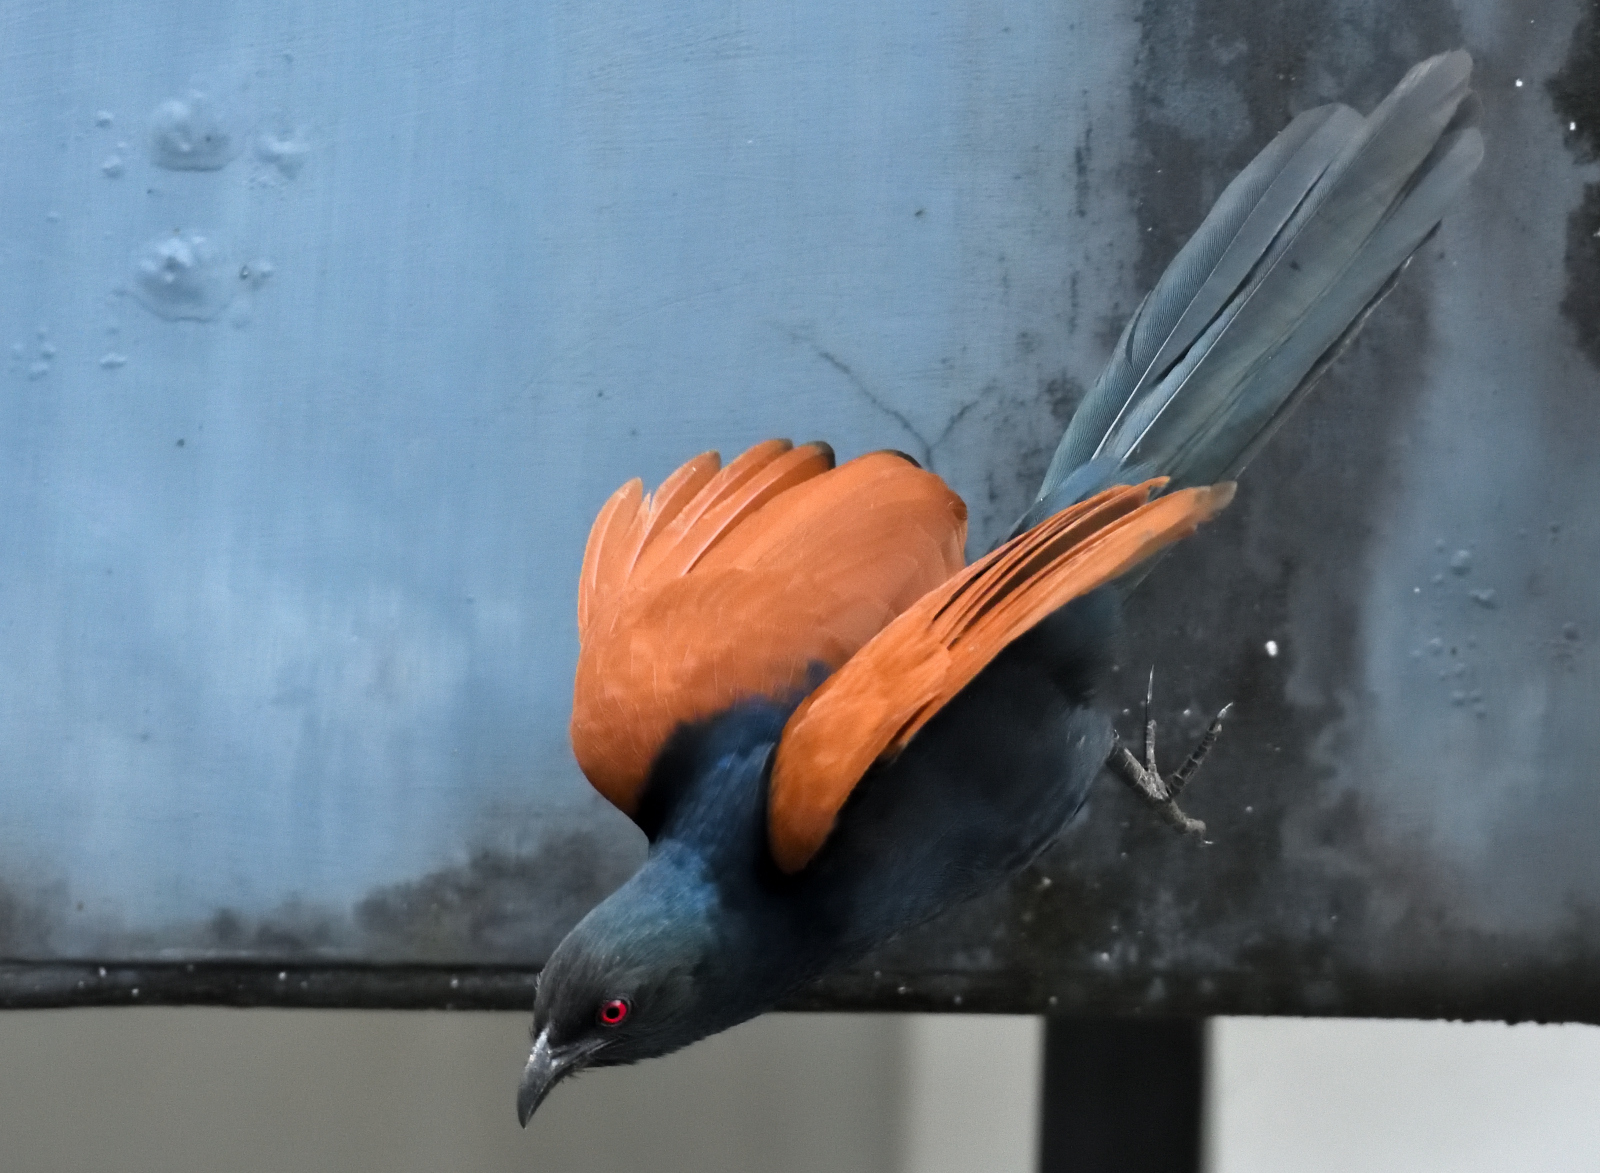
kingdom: Animalia
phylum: Chordata
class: Aves
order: Cuculiformes
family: Cuculidae
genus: Centropus
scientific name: Centropus sinensis
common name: Greater coucal
